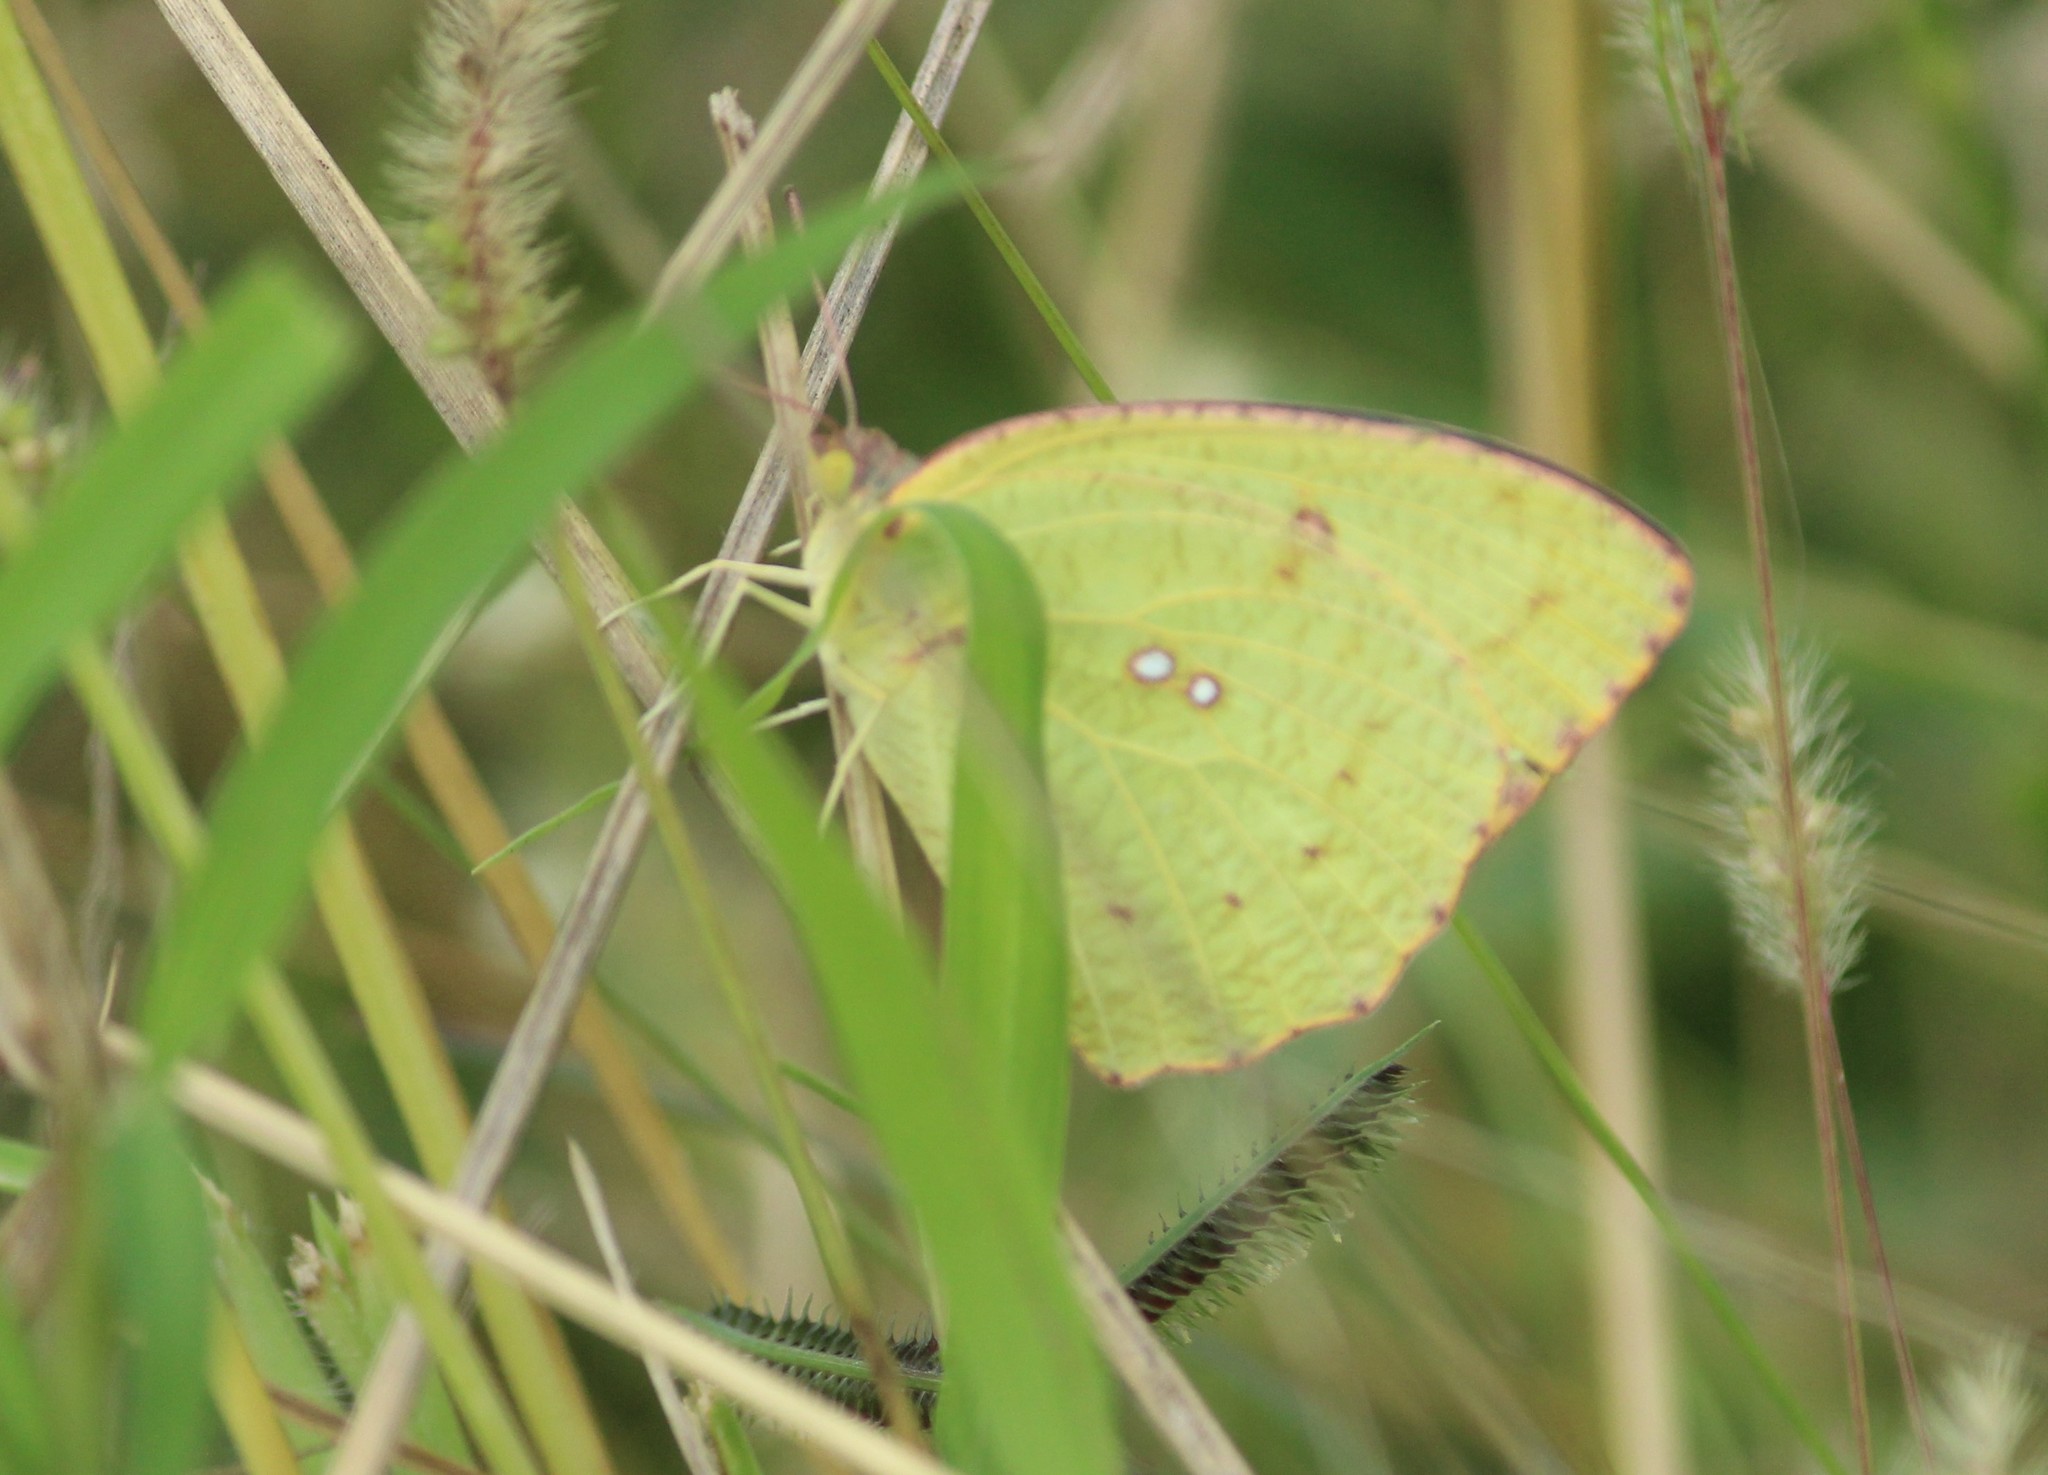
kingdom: Animalia
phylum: Arthropoda
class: Insecta
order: Lepidoptera
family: Pieridae
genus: Catopsilia
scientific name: Catopsilia pyranthe
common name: Mottled emigrant
